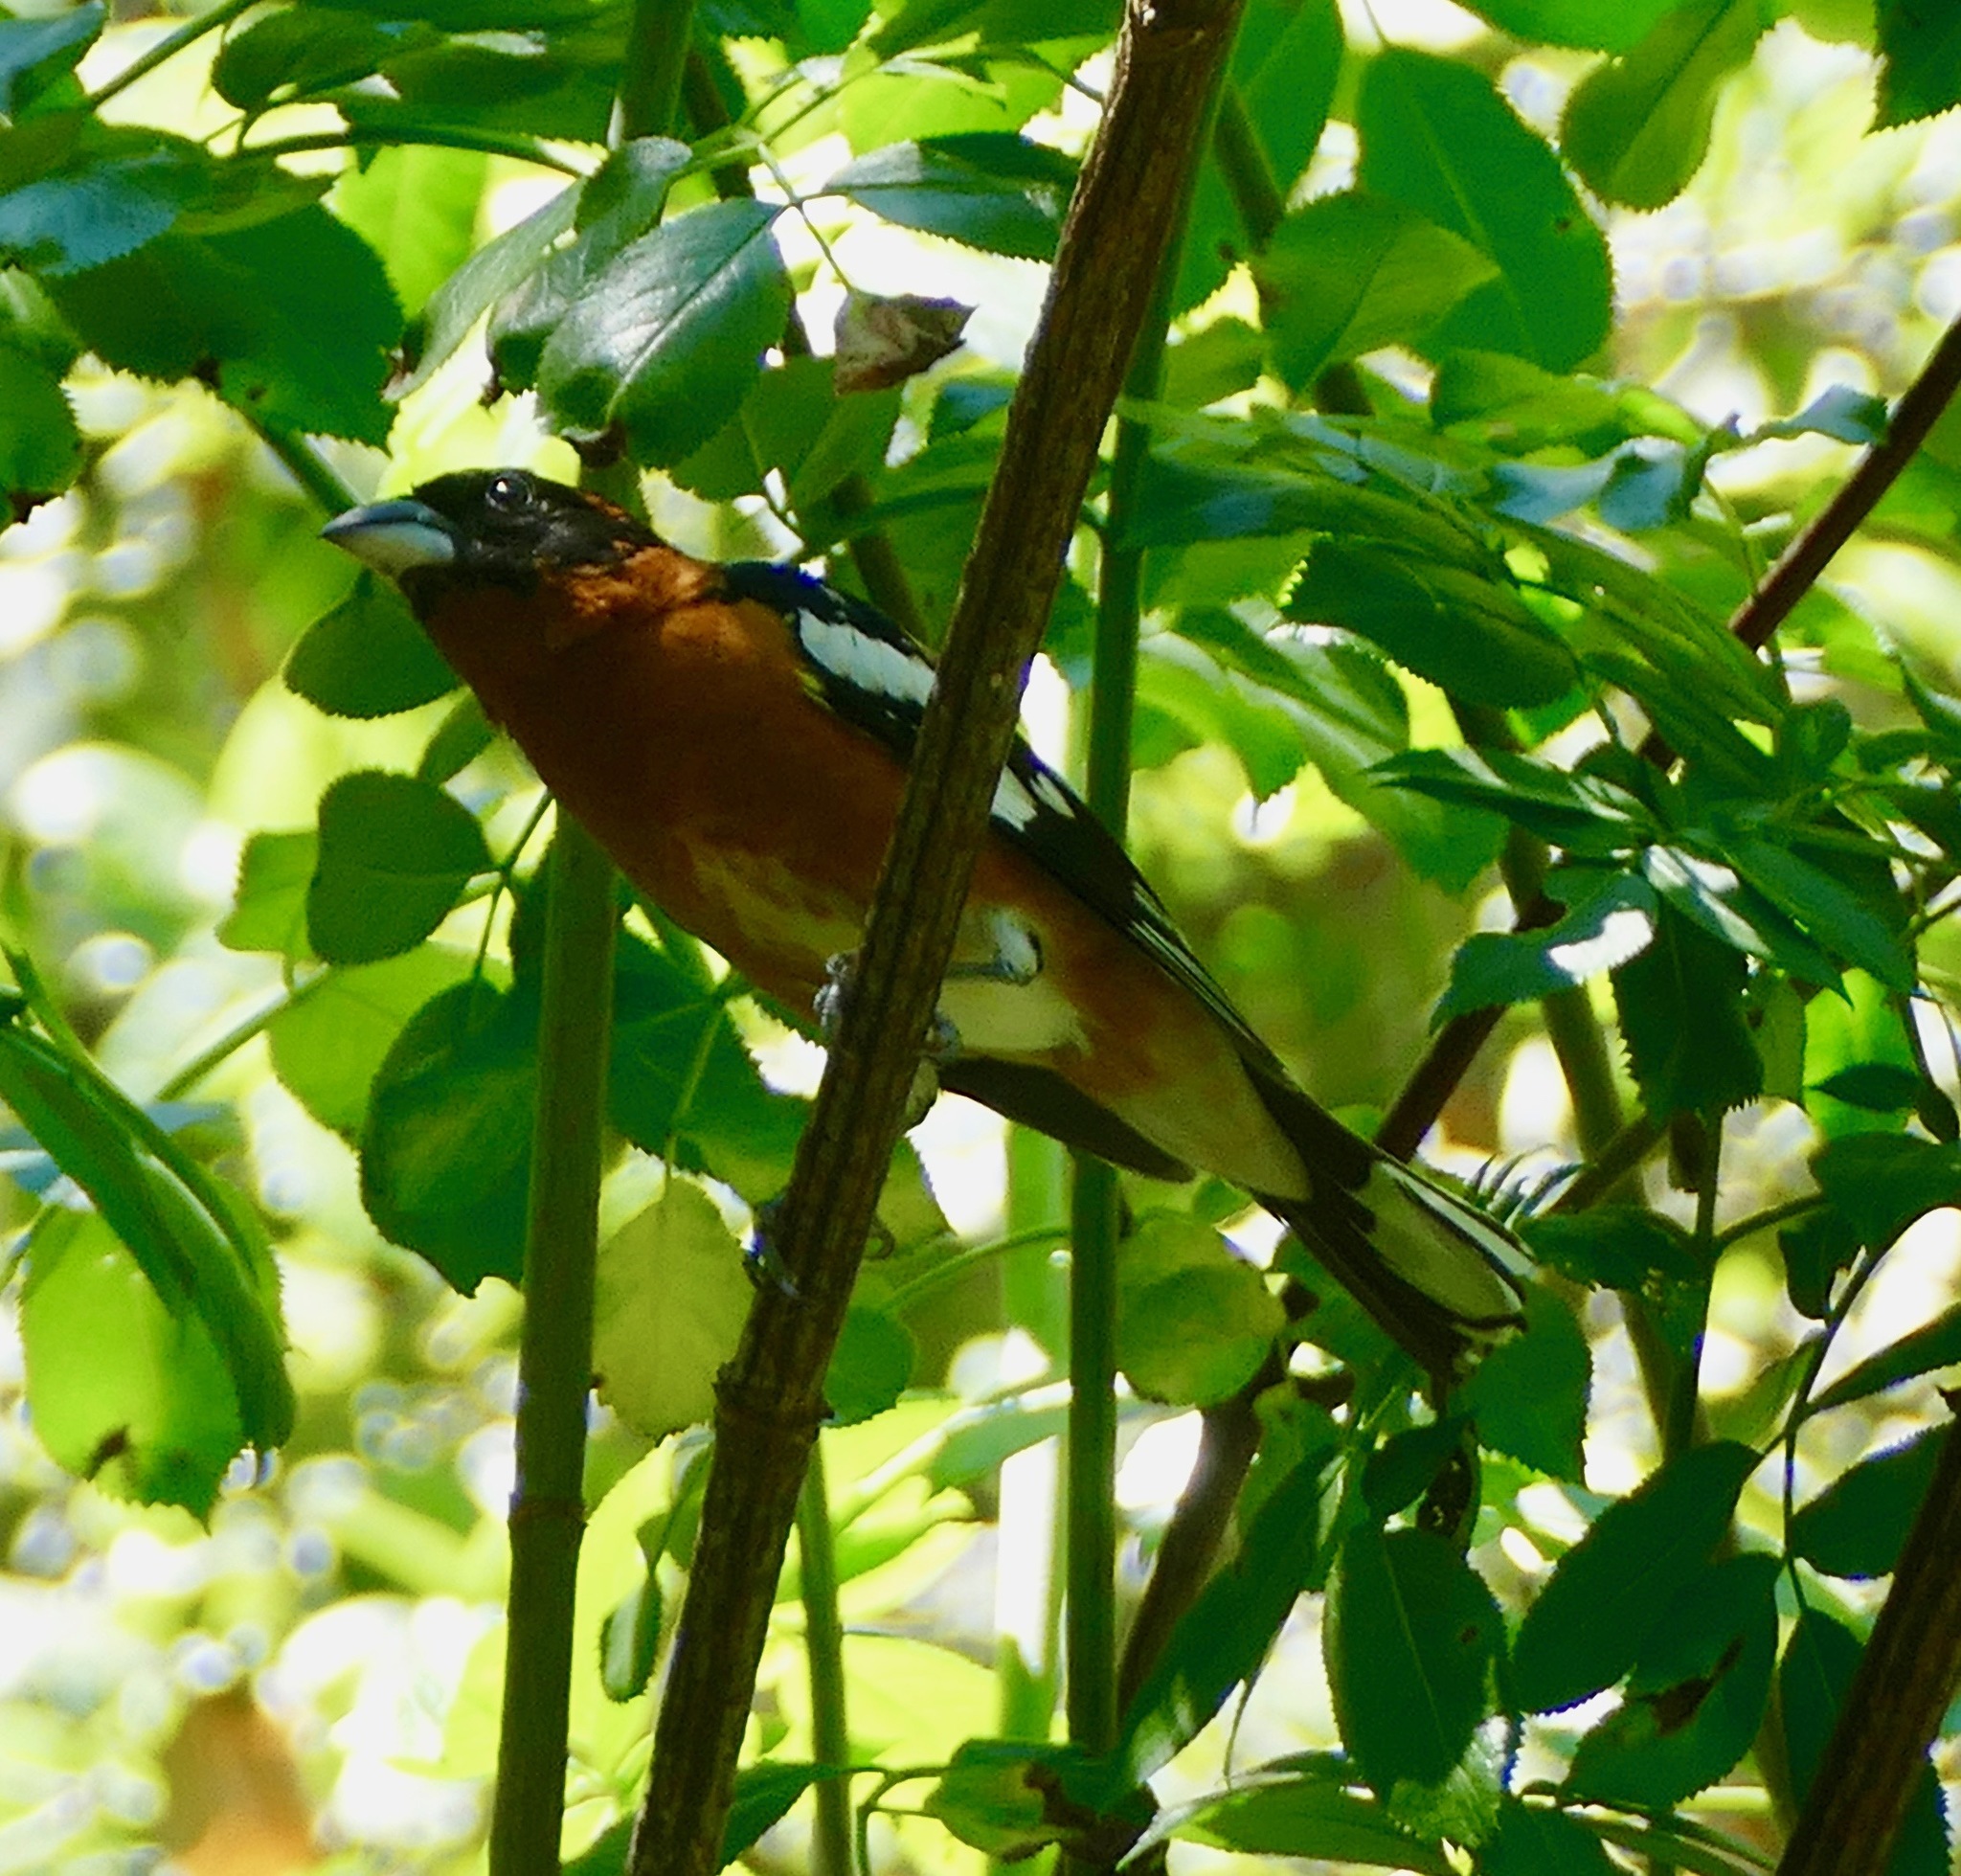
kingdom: Animalia
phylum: Chordata
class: Aves
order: Passeriformes
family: Cardinalidae
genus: Pheucticus
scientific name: Pheucticus melanocephalus
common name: Black-headed grosbeak
